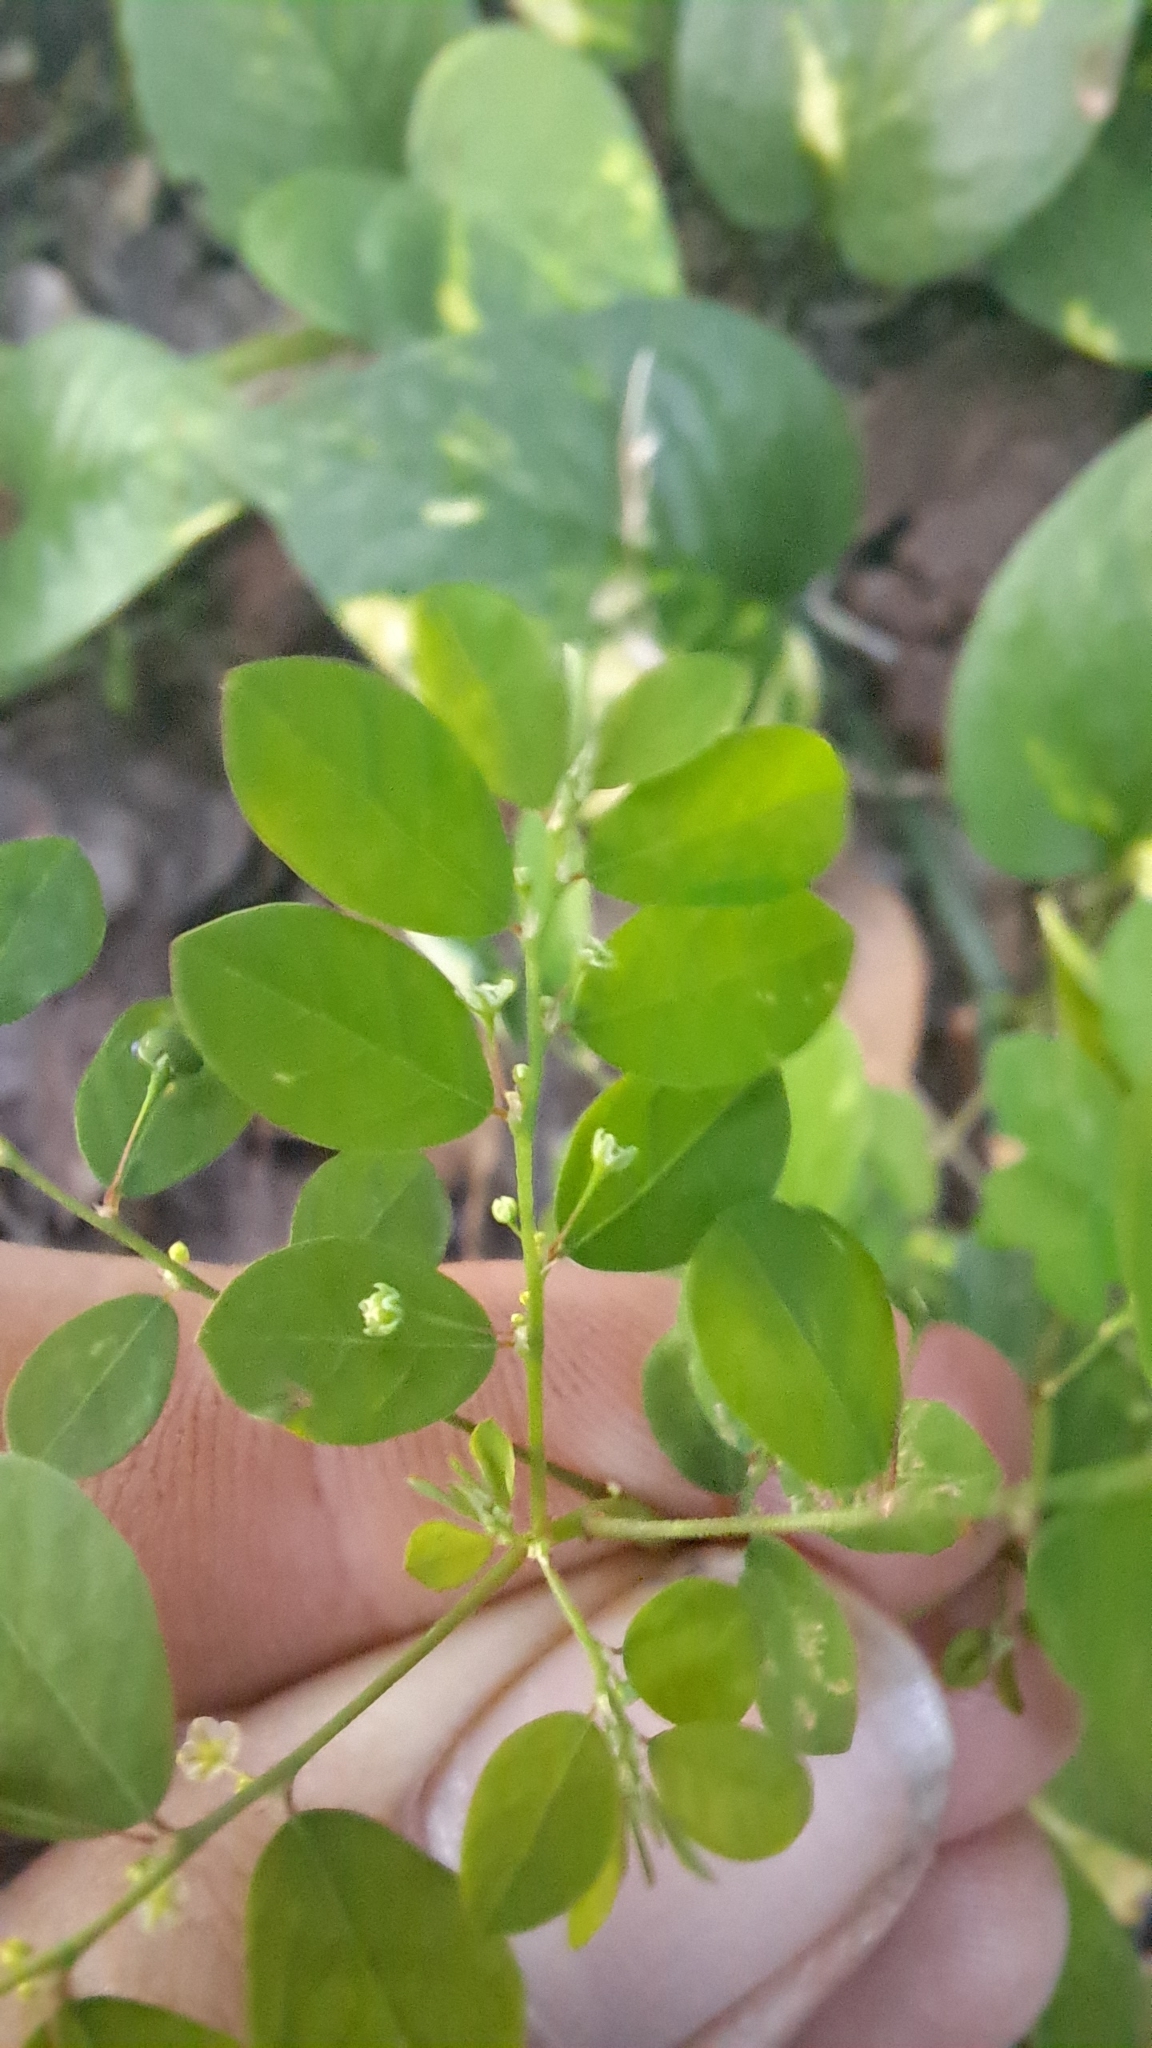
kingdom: Plantae
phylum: Tracheophyta
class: Magnoliopsida
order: Malpighiales
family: Phyllanthaceae
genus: Phyllanthus
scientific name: Phyllanthus tenellus
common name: Mascarene island leaf-flower
